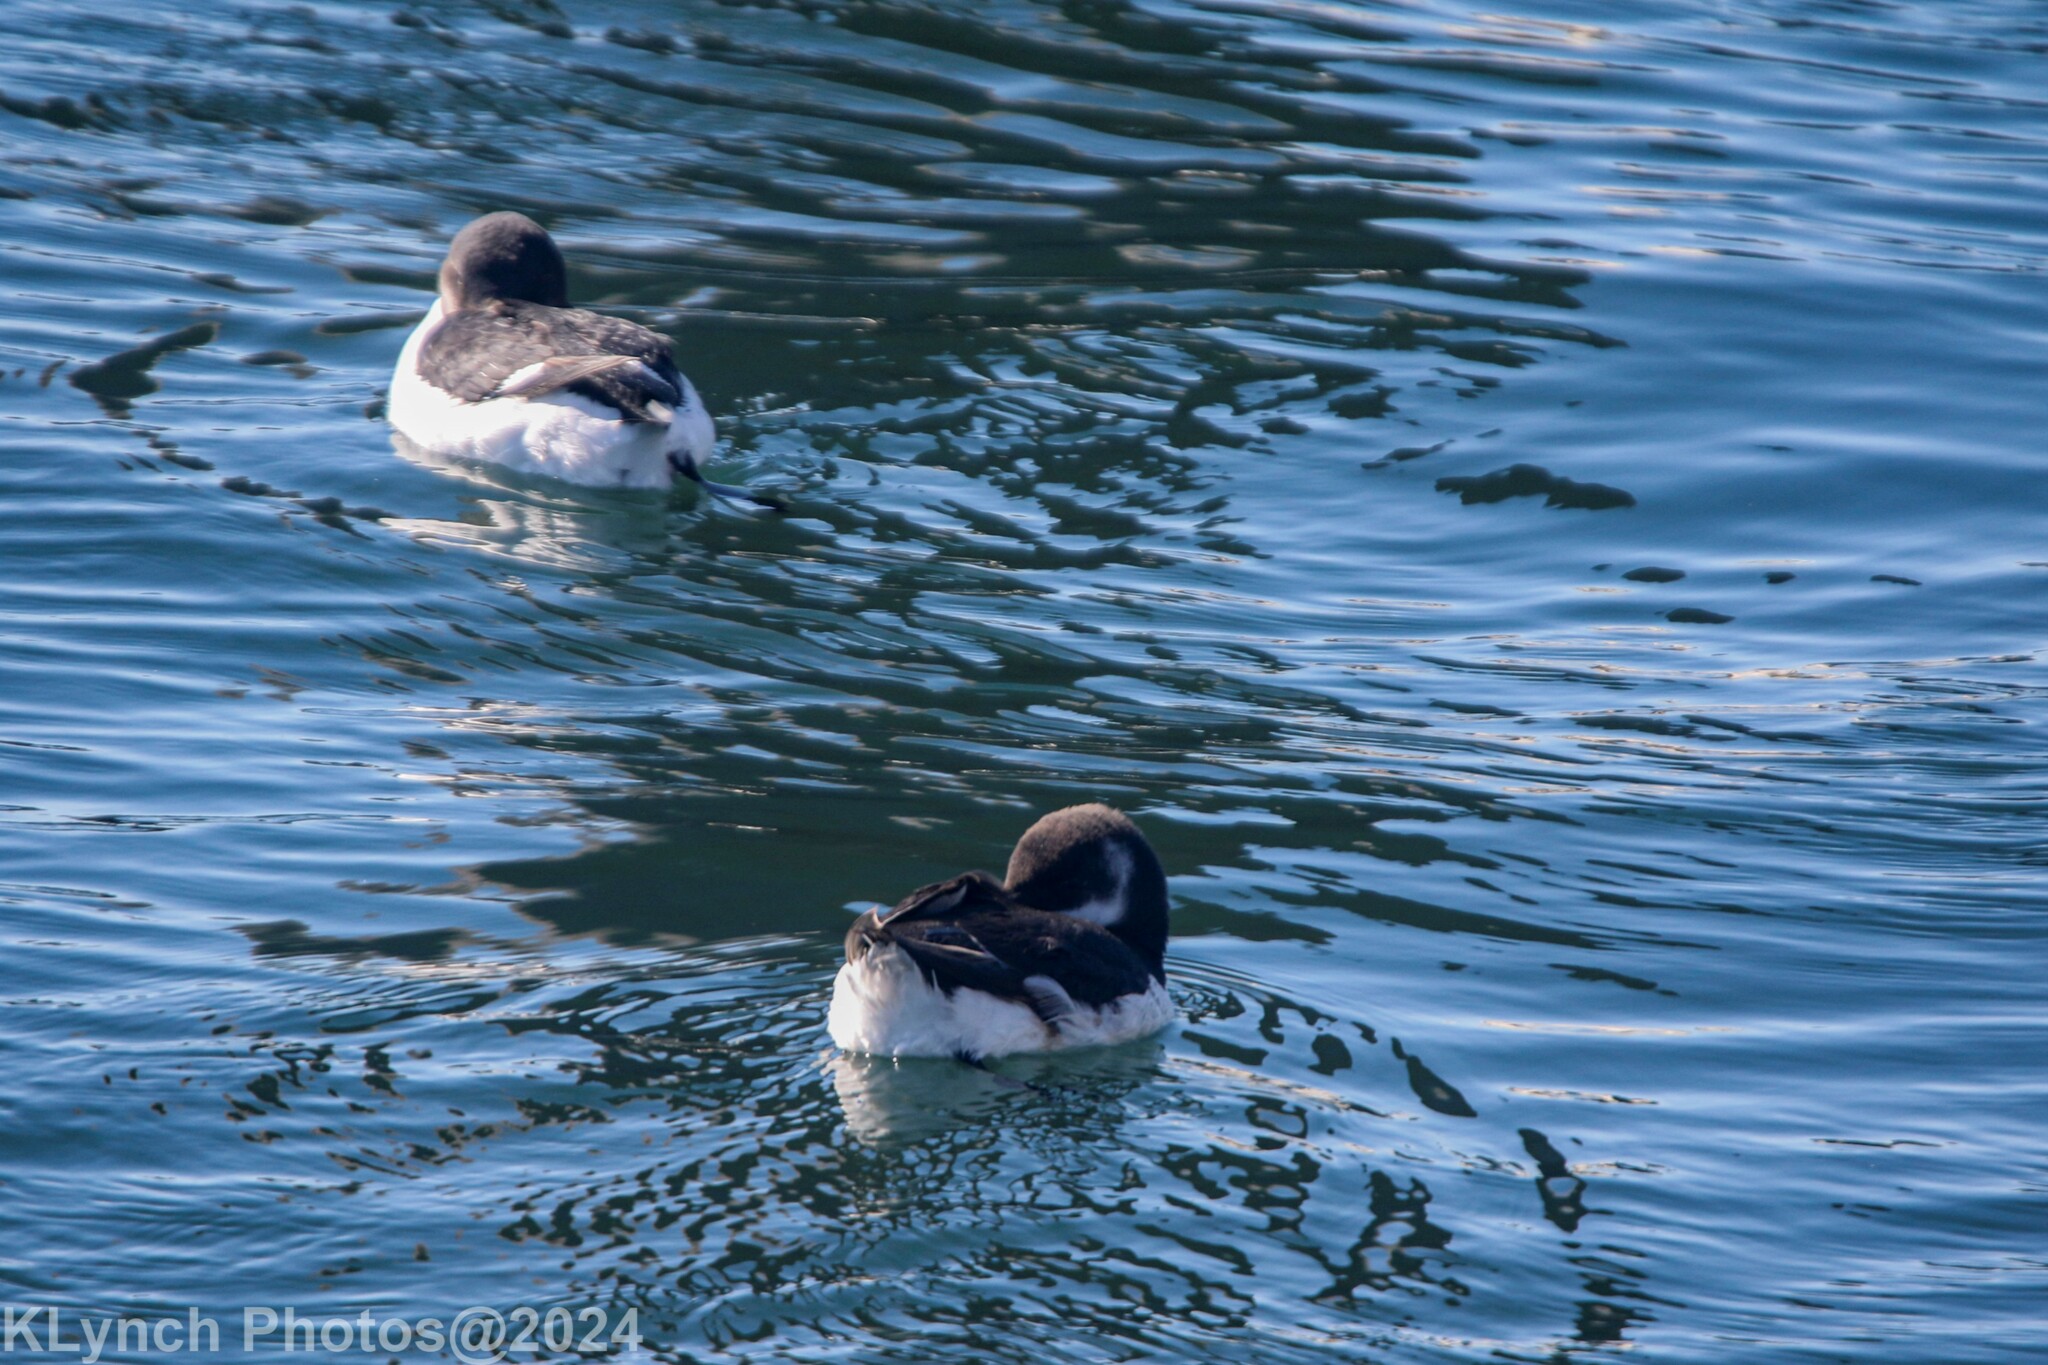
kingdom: Animalia
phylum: Chordata
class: Aves
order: Charadriiformes
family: Alcidae
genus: Alca
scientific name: Alca torda
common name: Razorbill
